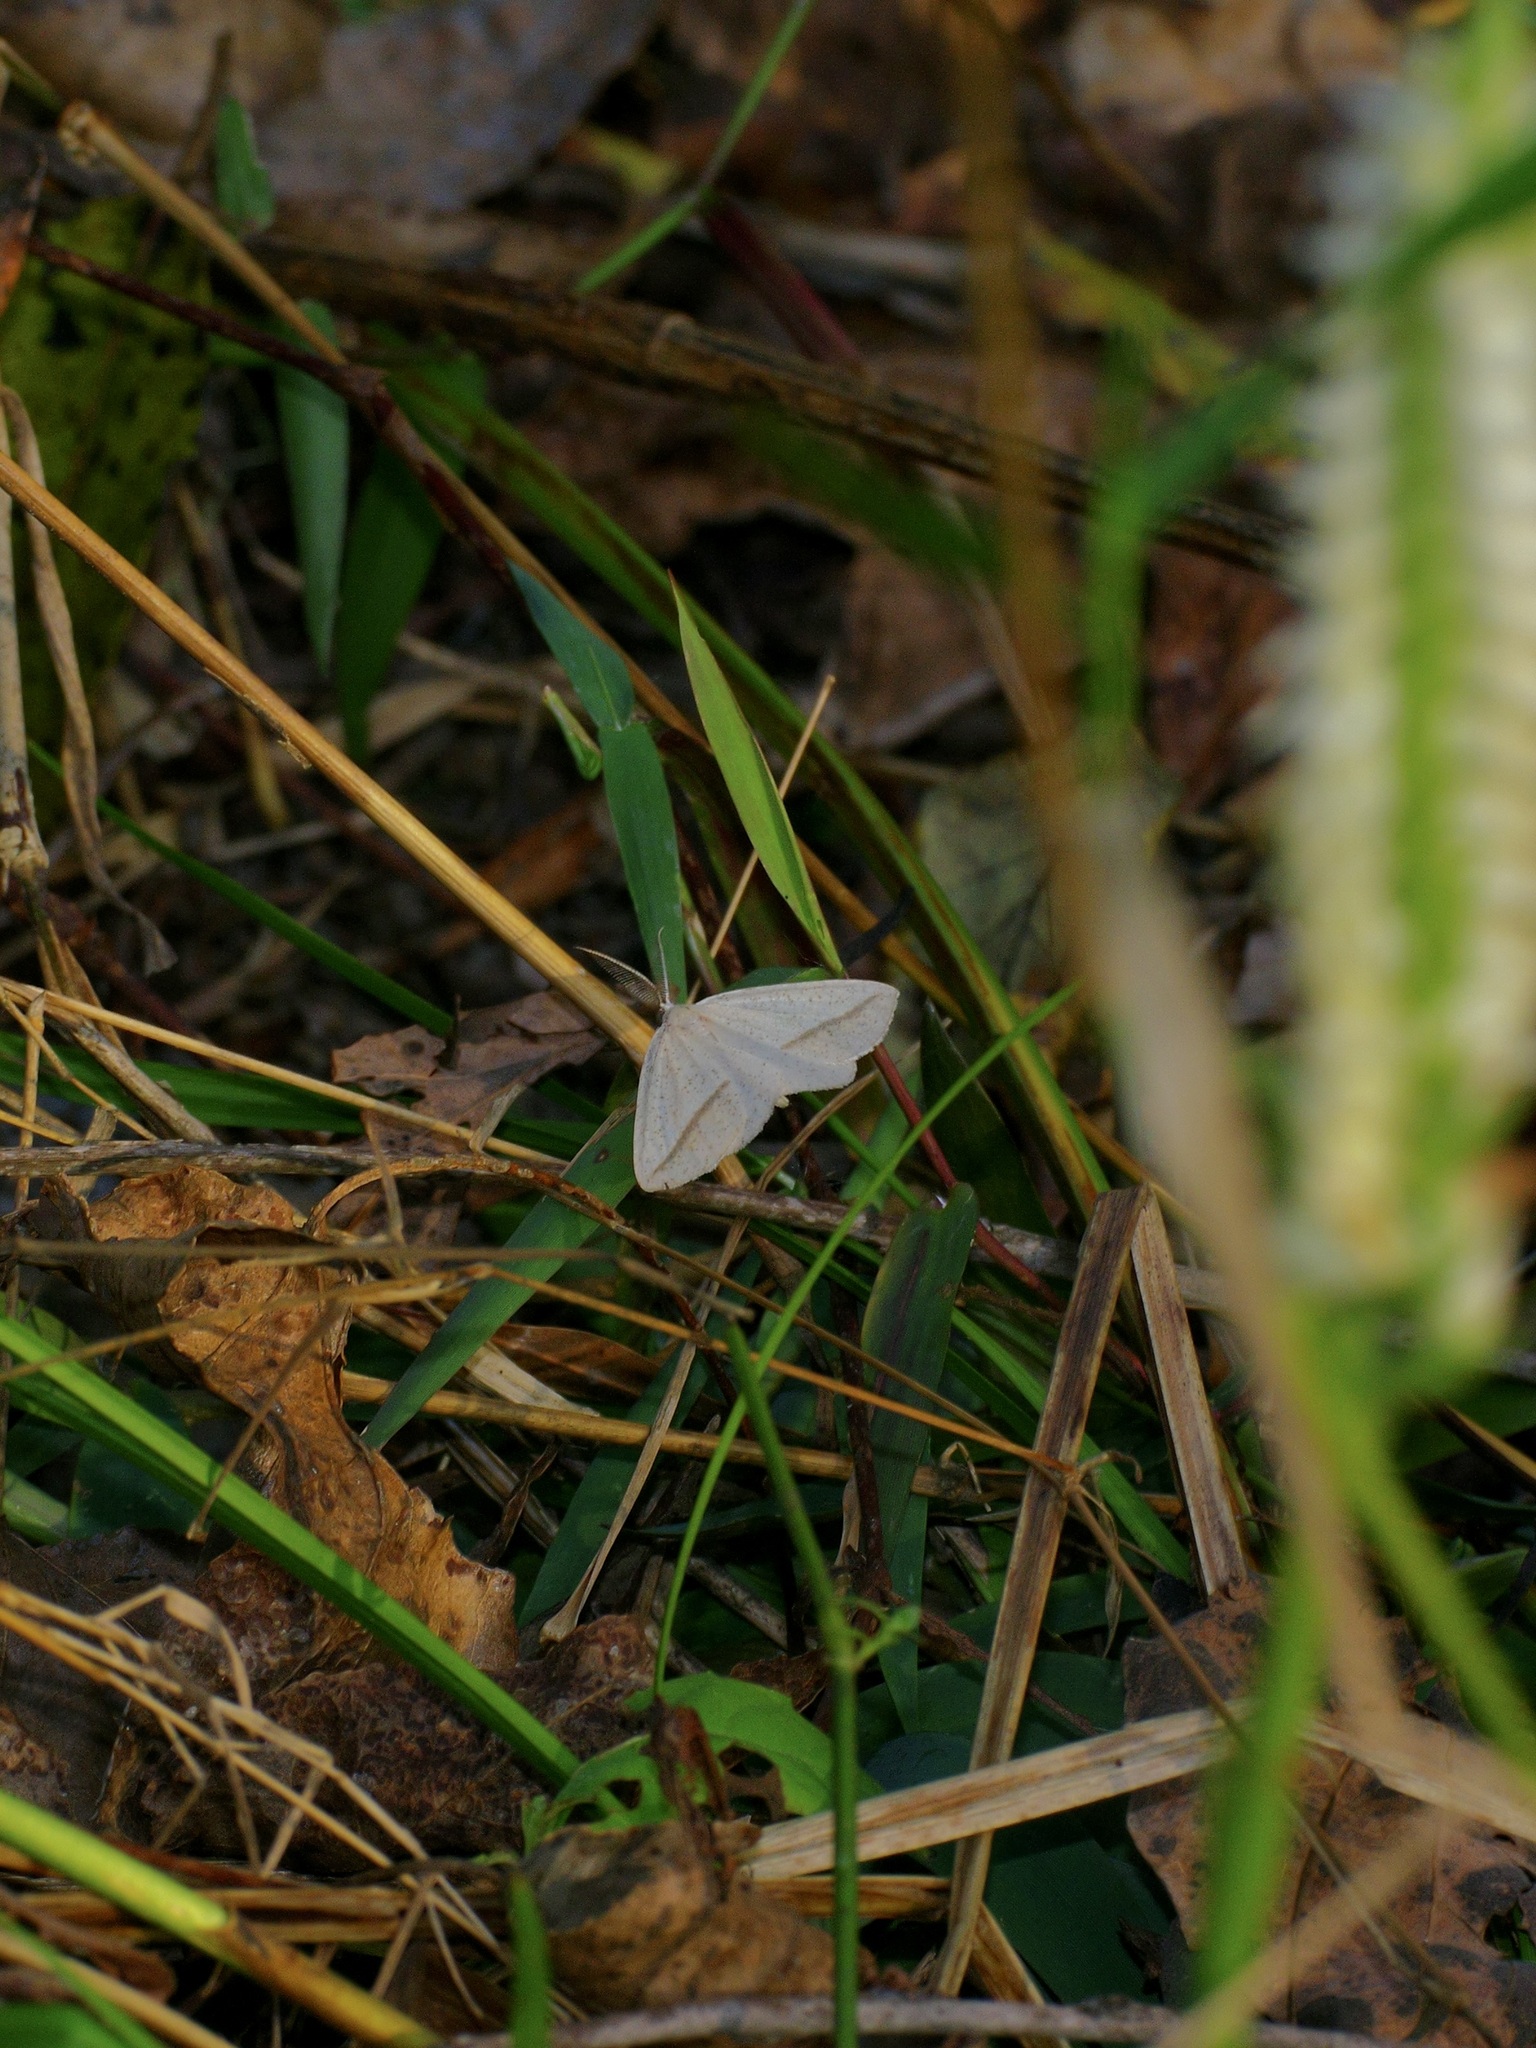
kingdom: Animalia
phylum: Arthropoda
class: Insecta
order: Lepidoptera
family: Geometridae
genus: Lychnosea
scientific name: Lychnosea intermicata
